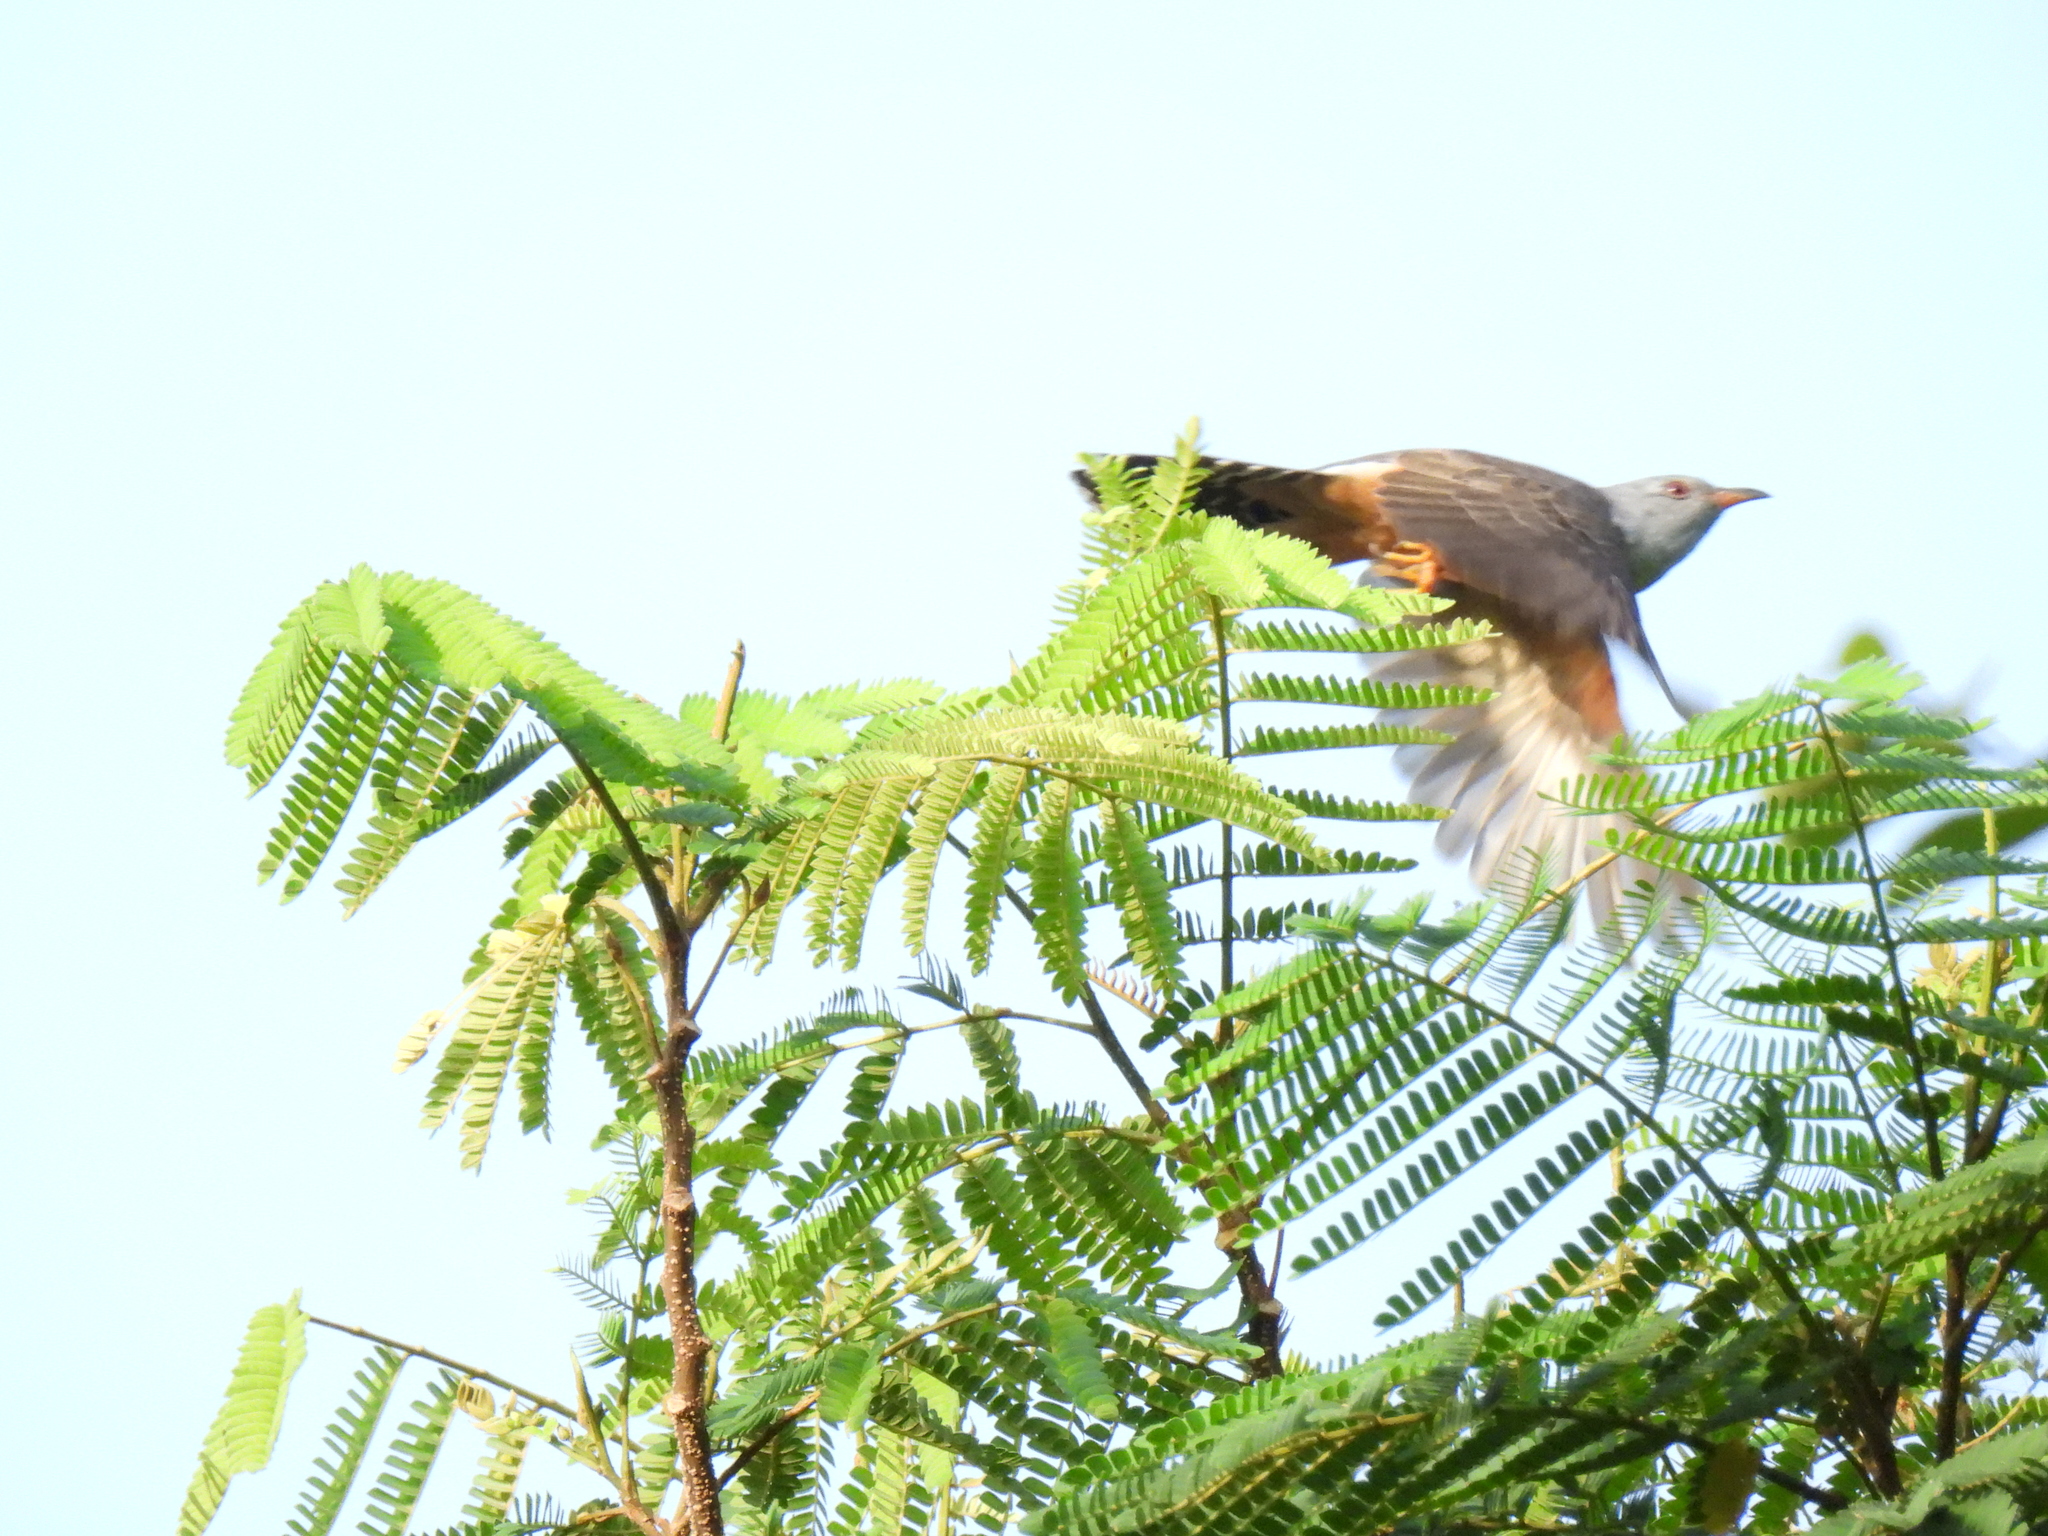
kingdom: Animalia
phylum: Chordata
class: Aves
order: Cuculiformes
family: Cuculidae
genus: Cacomantis
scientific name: Cacomantis merulinus
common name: Plaintive cuckoo
